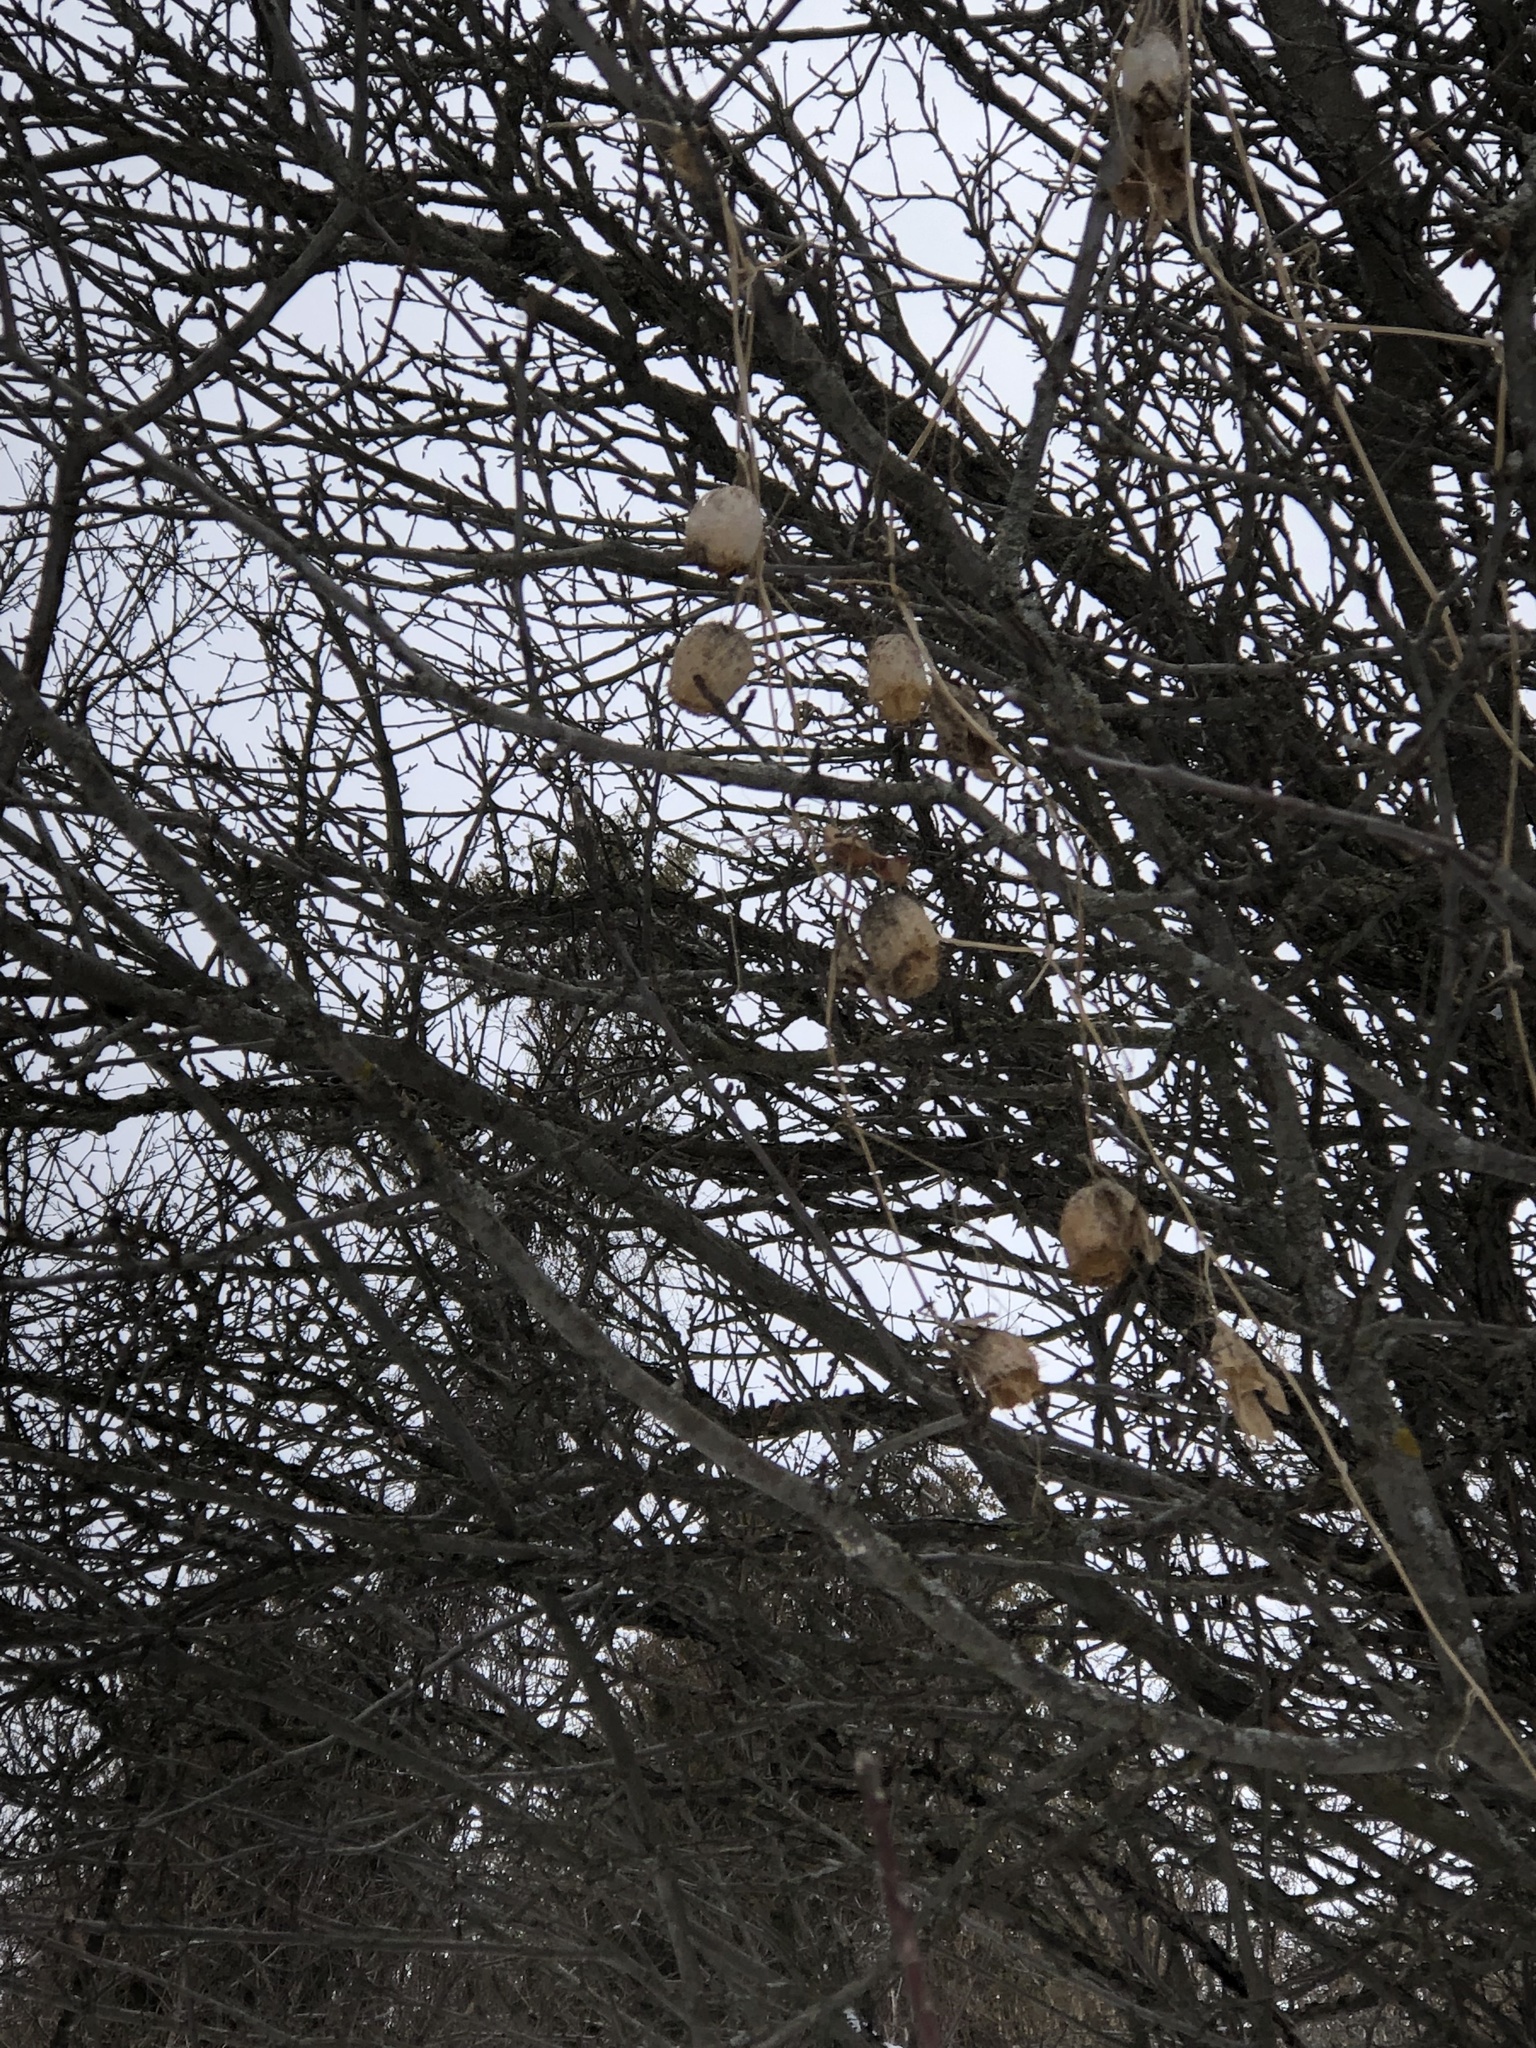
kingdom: Plantae
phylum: Tracheophyta
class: Magnoliopsida
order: Cucurbitales
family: Cucurbitaceae
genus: Echinocystis
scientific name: Echinocystis lobata
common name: Wild cucumber
